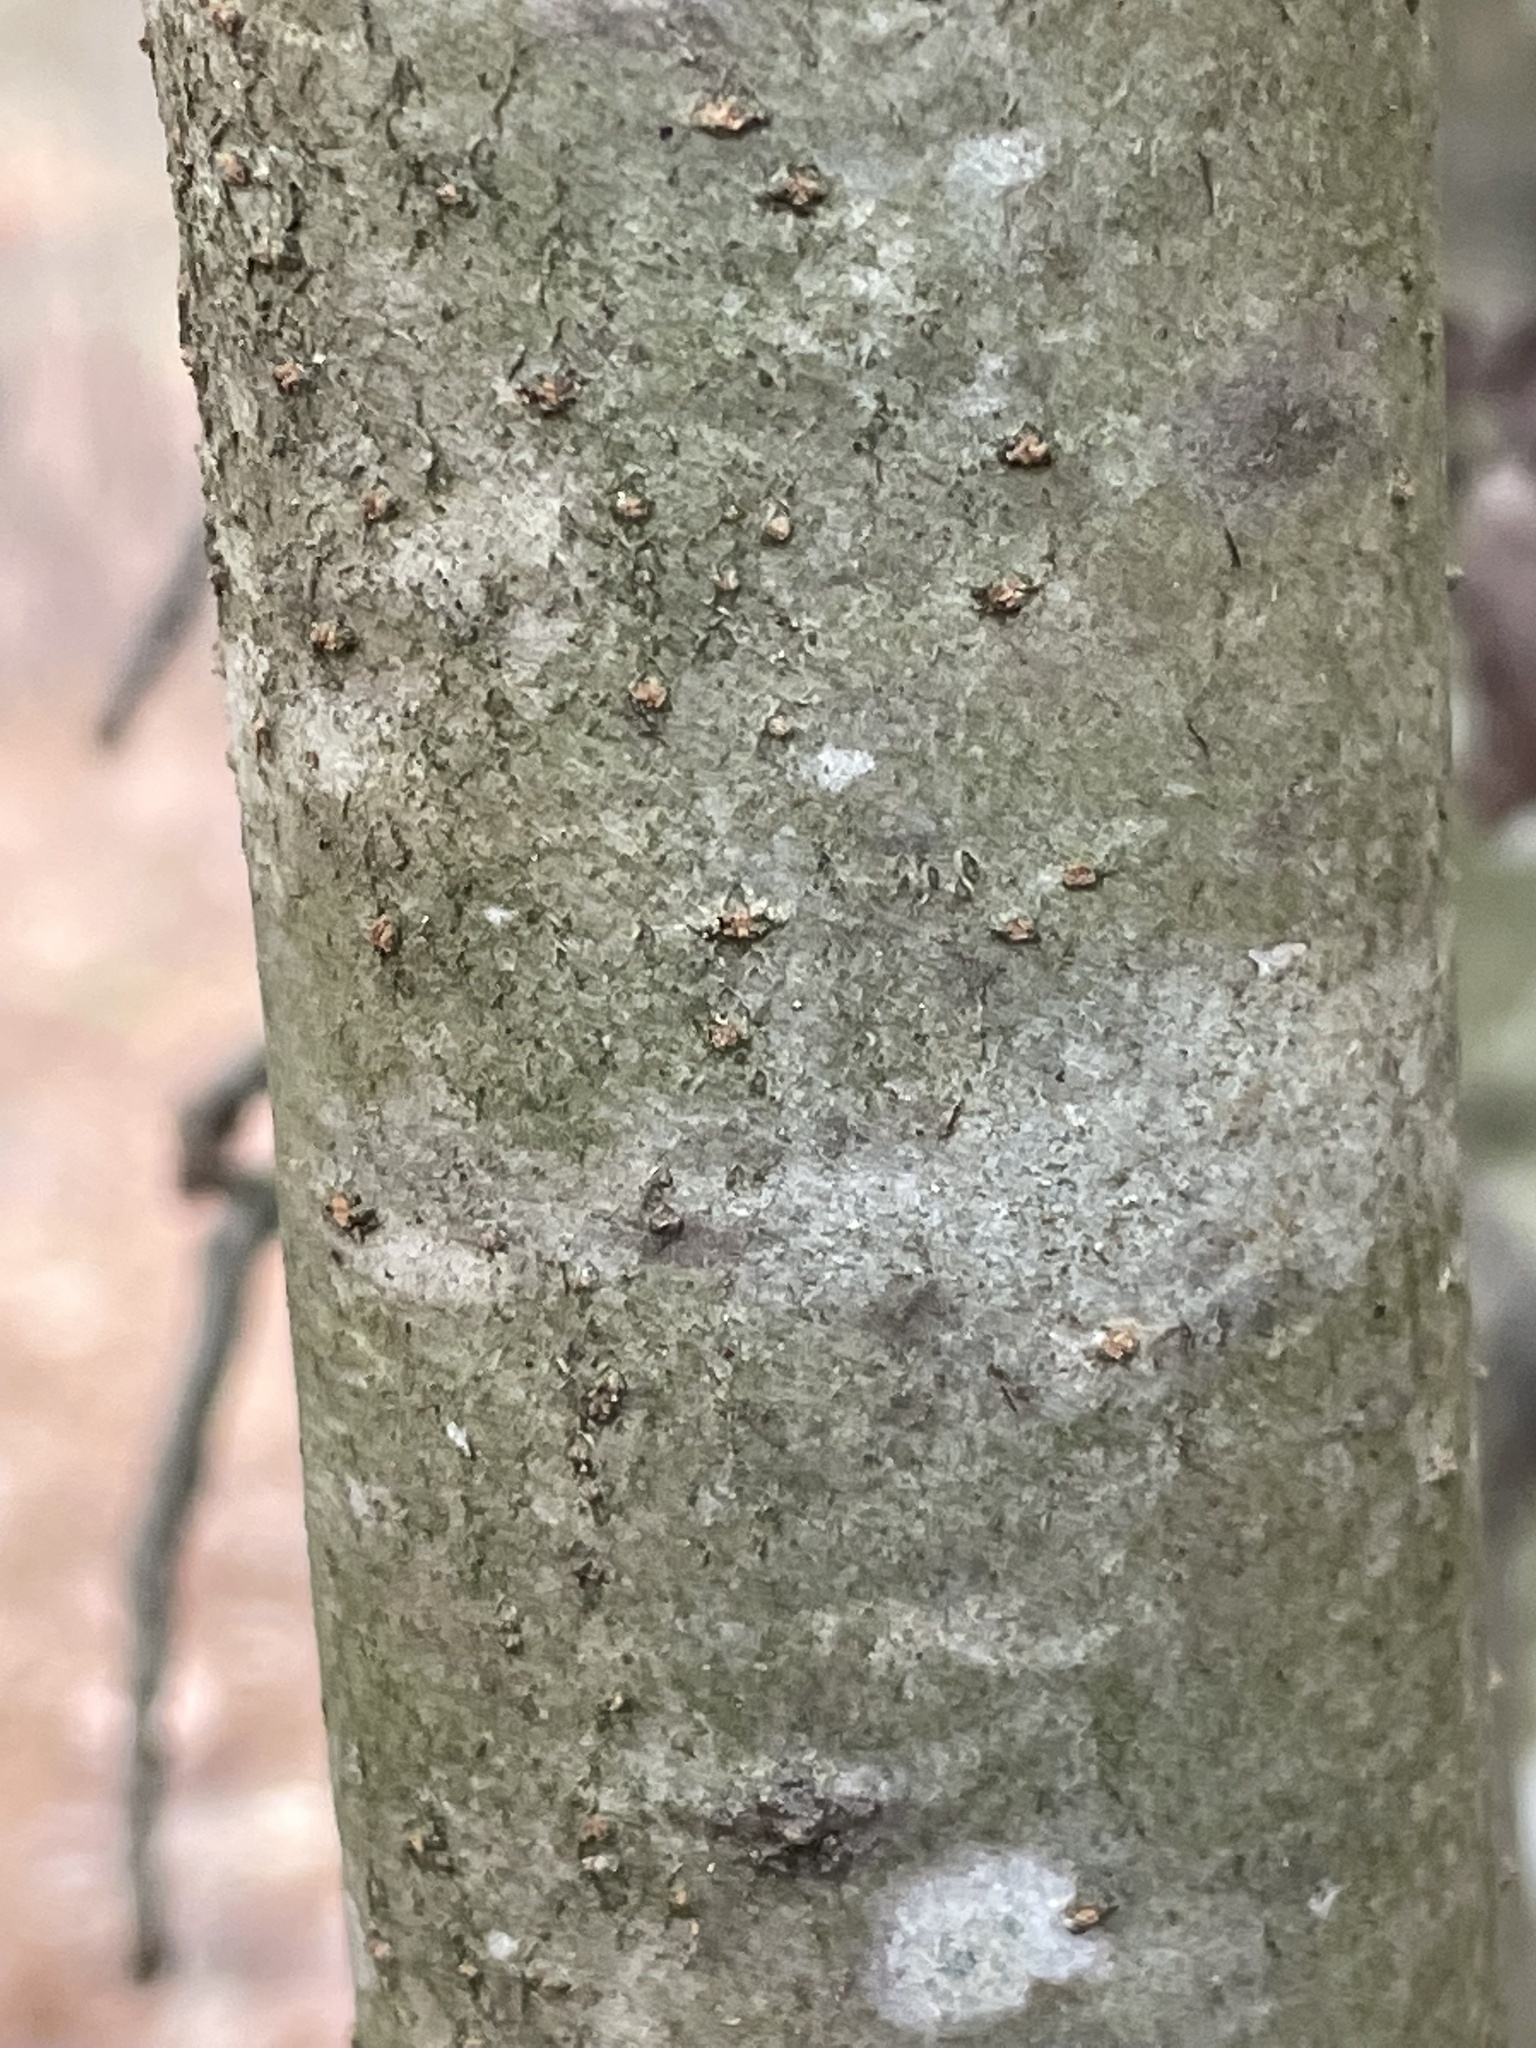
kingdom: Plantae
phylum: Tracheophyta
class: Magnoliopsida
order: Aquifoliales
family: Aquifoliaceae
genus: Ilex
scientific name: Ilex decidua
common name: Possum-haw
